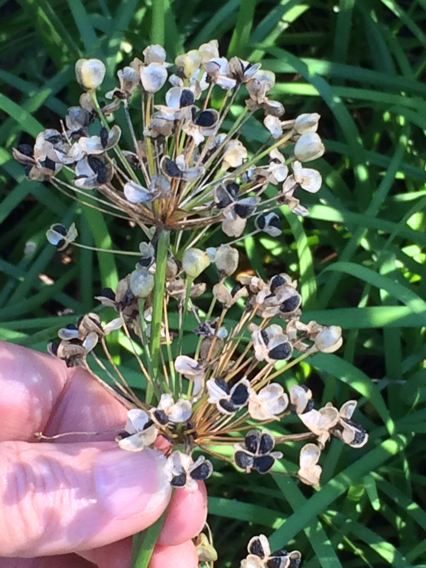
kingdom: Plantae
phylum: Tracheophyta
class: Liliopsida
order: Asparagales
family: Amaryllidaceae
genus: Allium
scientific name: Allium tuberosum
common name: Chinese chives
